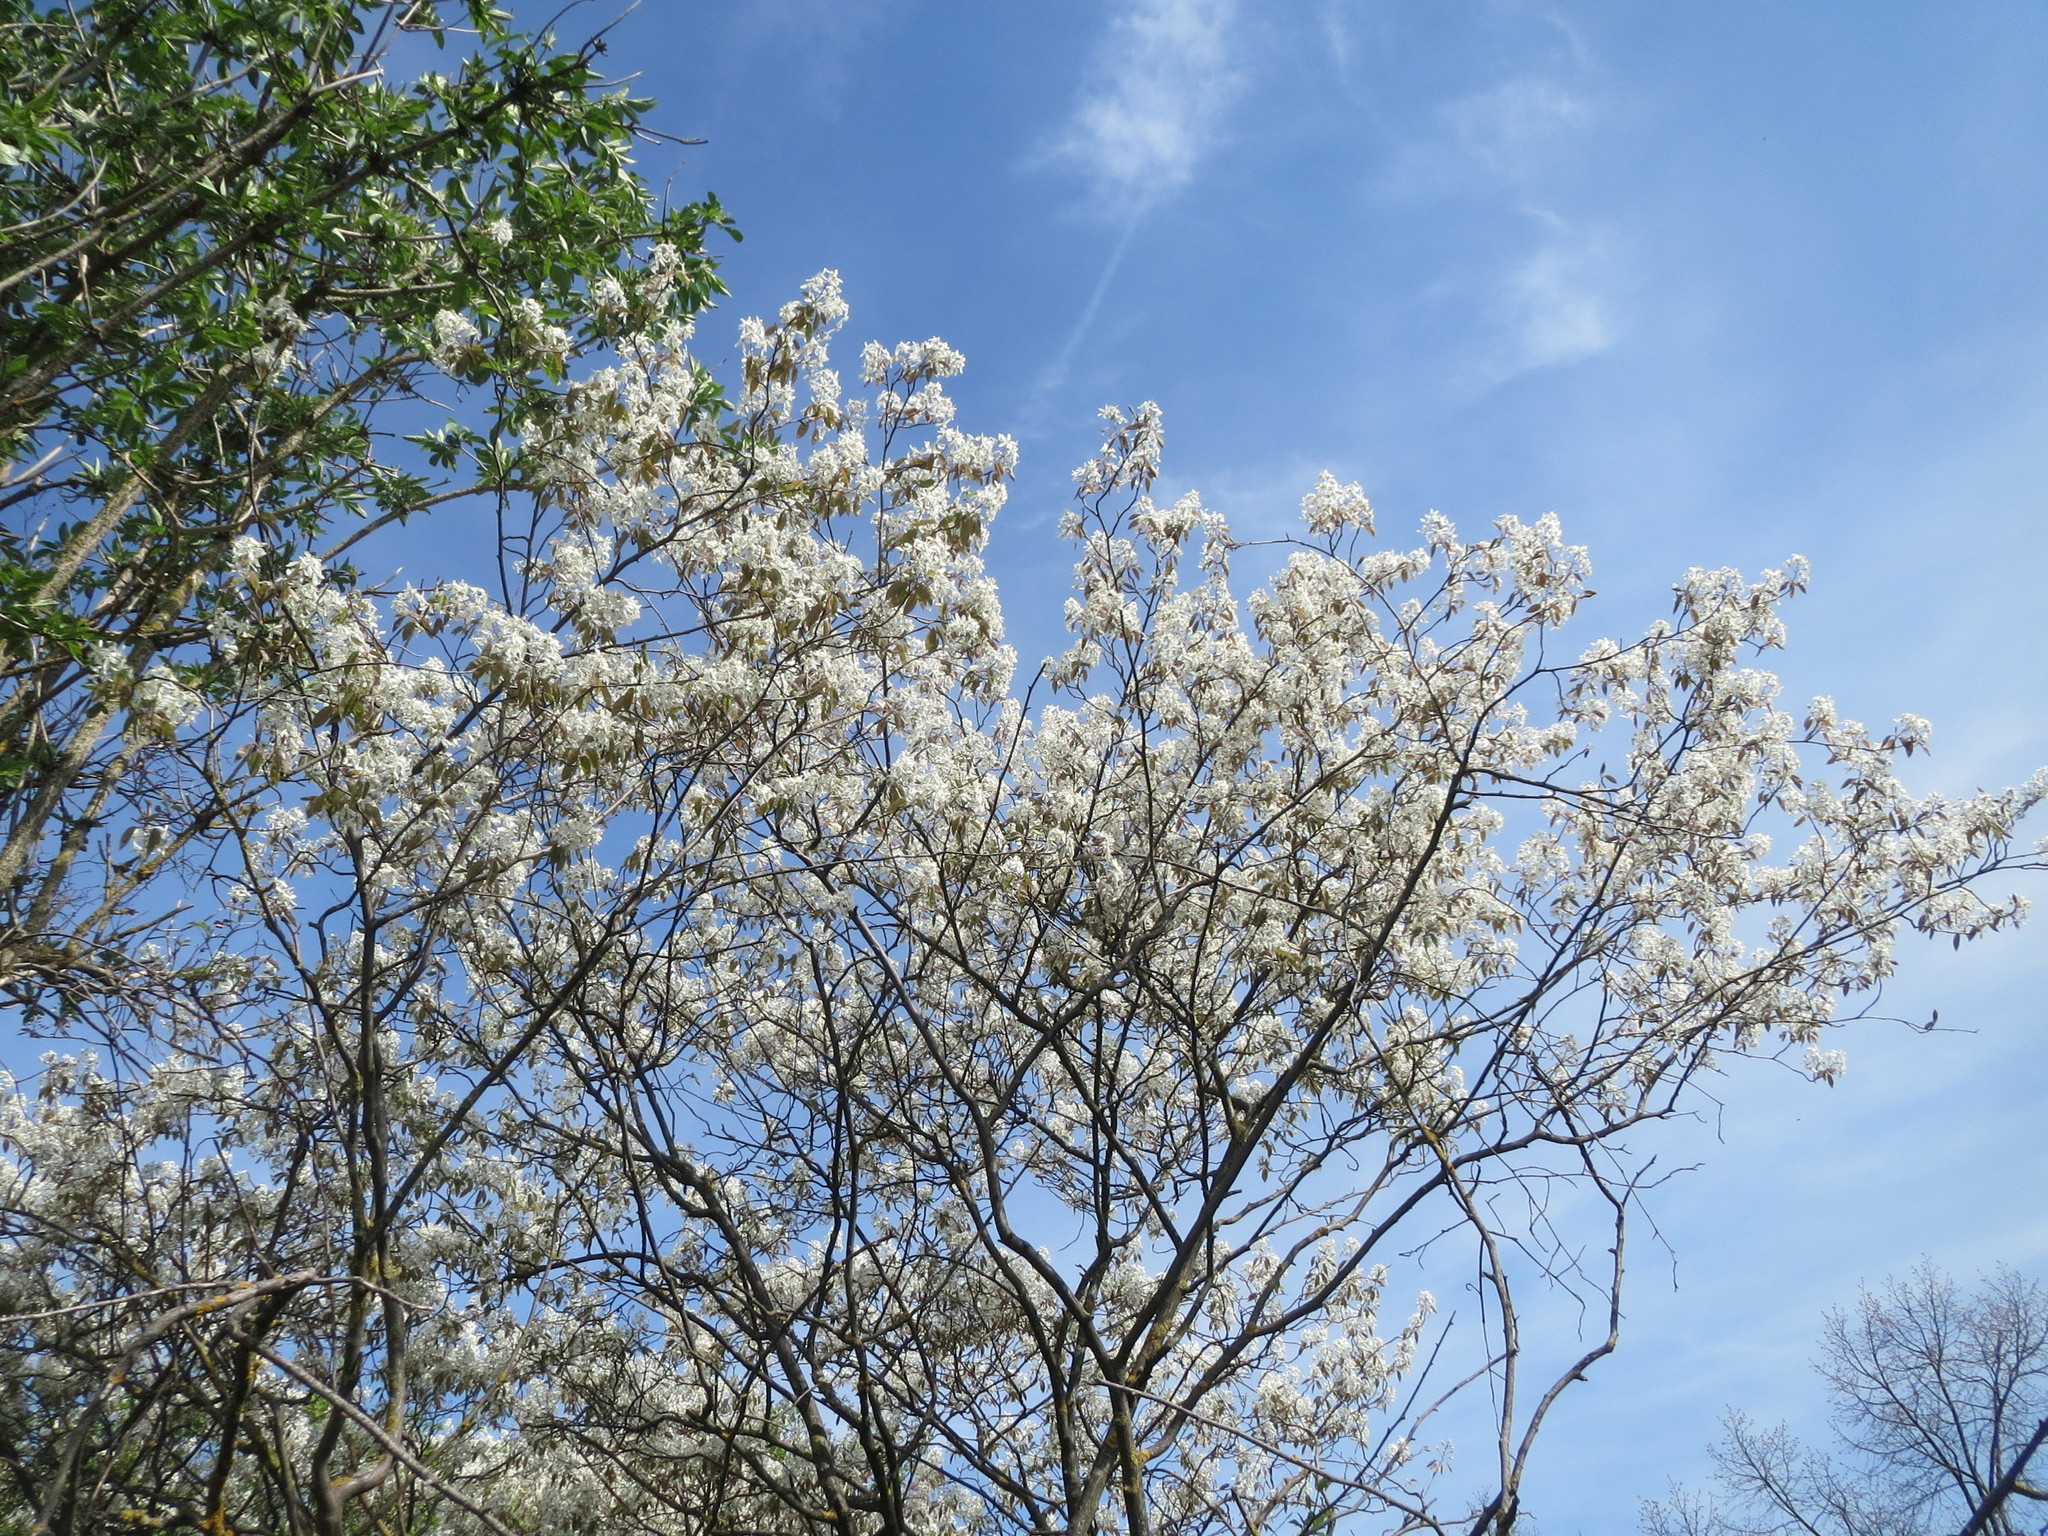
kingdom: Plantae
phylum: Tracheophyta
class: Magnoliopsida
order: Rosales
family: Rosaceae
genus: Amelanchier
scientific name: Amelanchier lamarckii
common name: Juneberry
